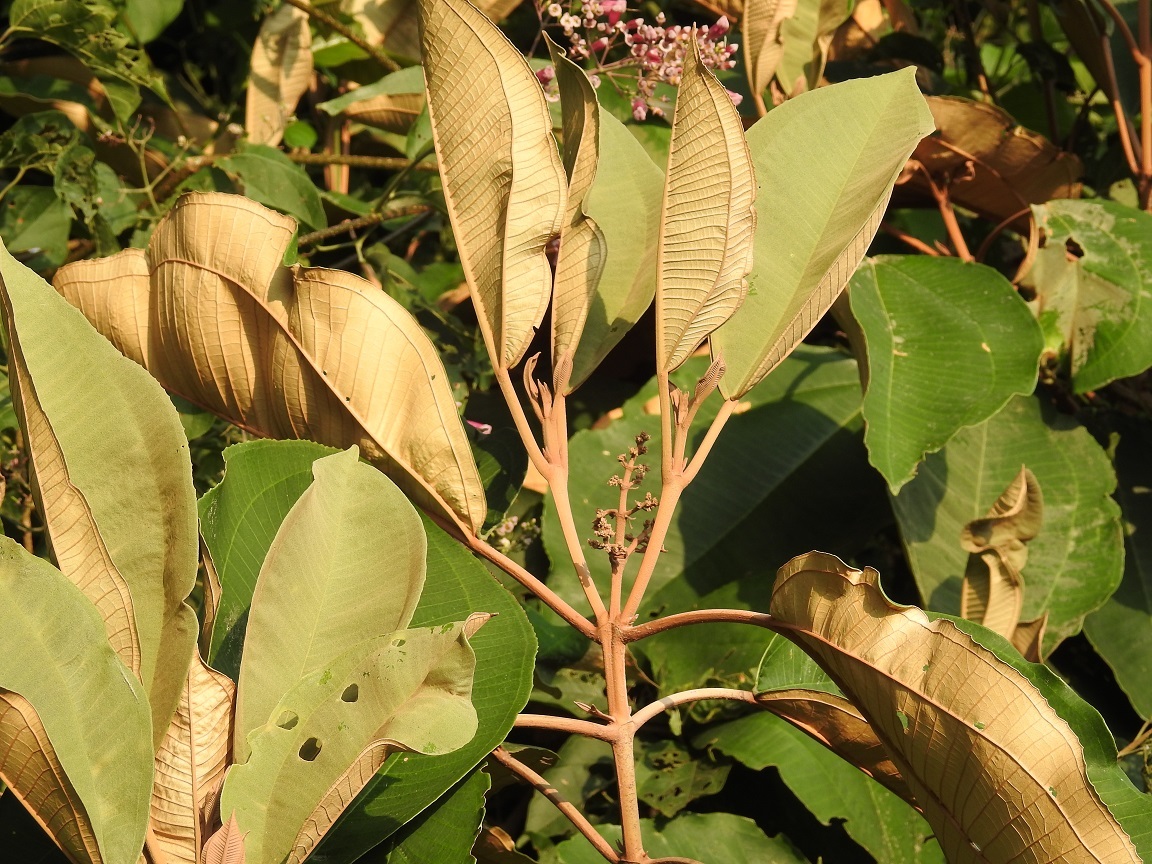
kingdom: Plantae
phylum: Tracheophyta
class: Magnoliopsida
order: Myrtales
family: Melastomataceae
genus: Miconia
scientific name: Miconia argentea
